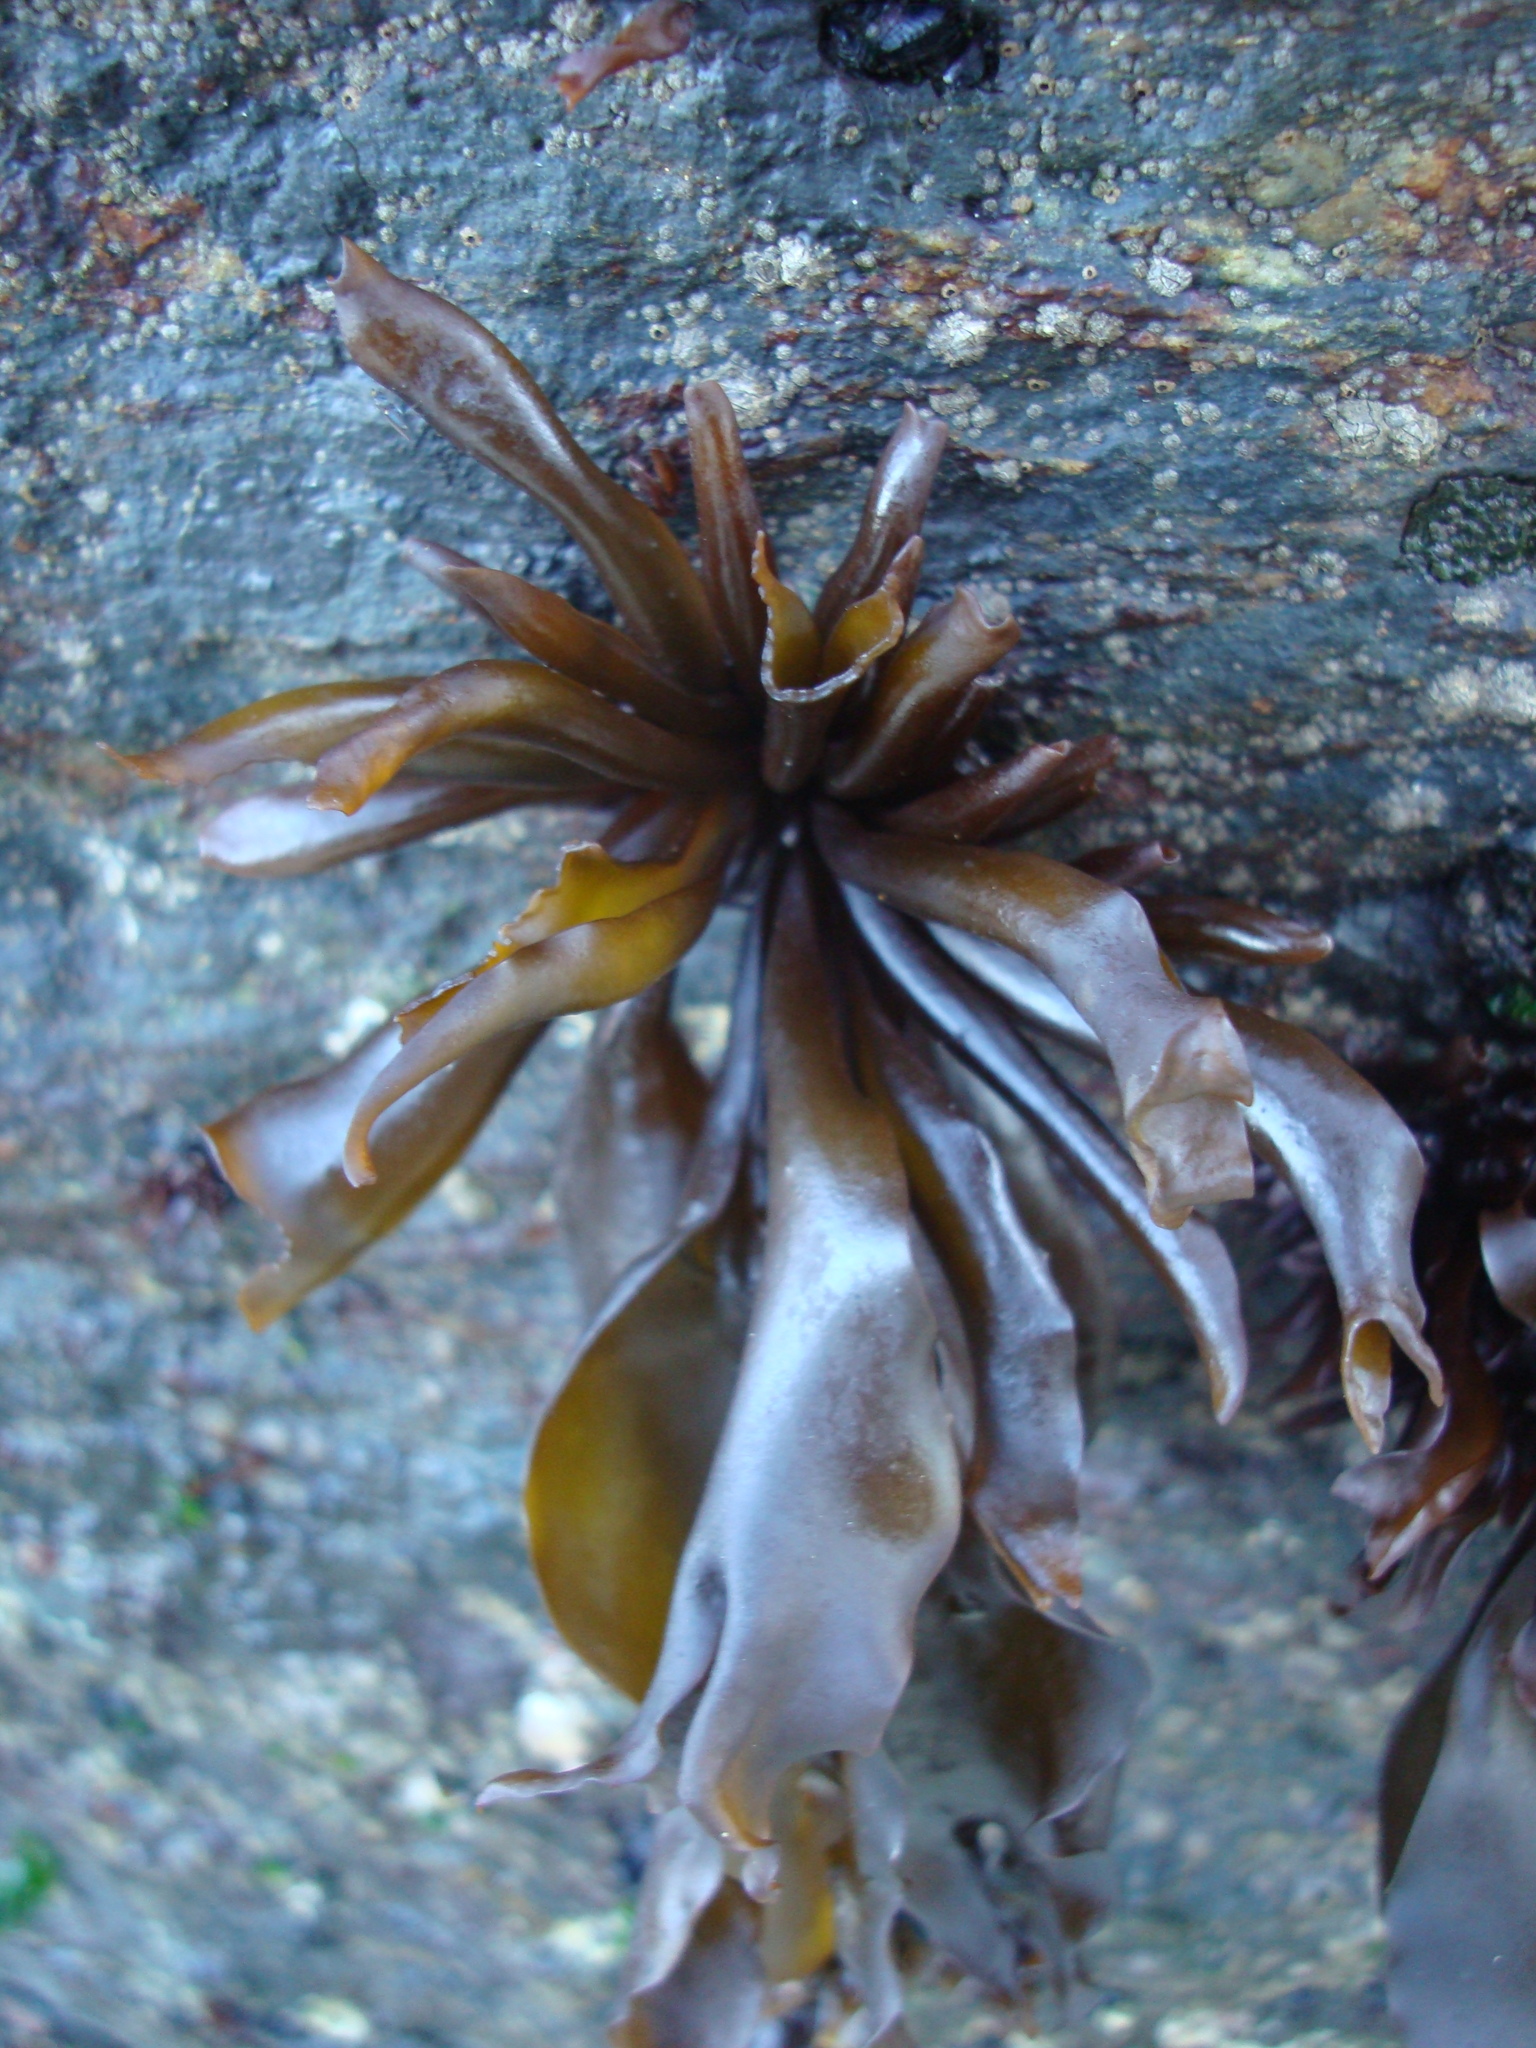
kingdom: Plantae
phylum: Rhodophyta
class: Florideophyceae
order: Gigartinales
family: Gigartinaceae
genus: Mazzaella
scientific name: Mazzaella laminarioides
